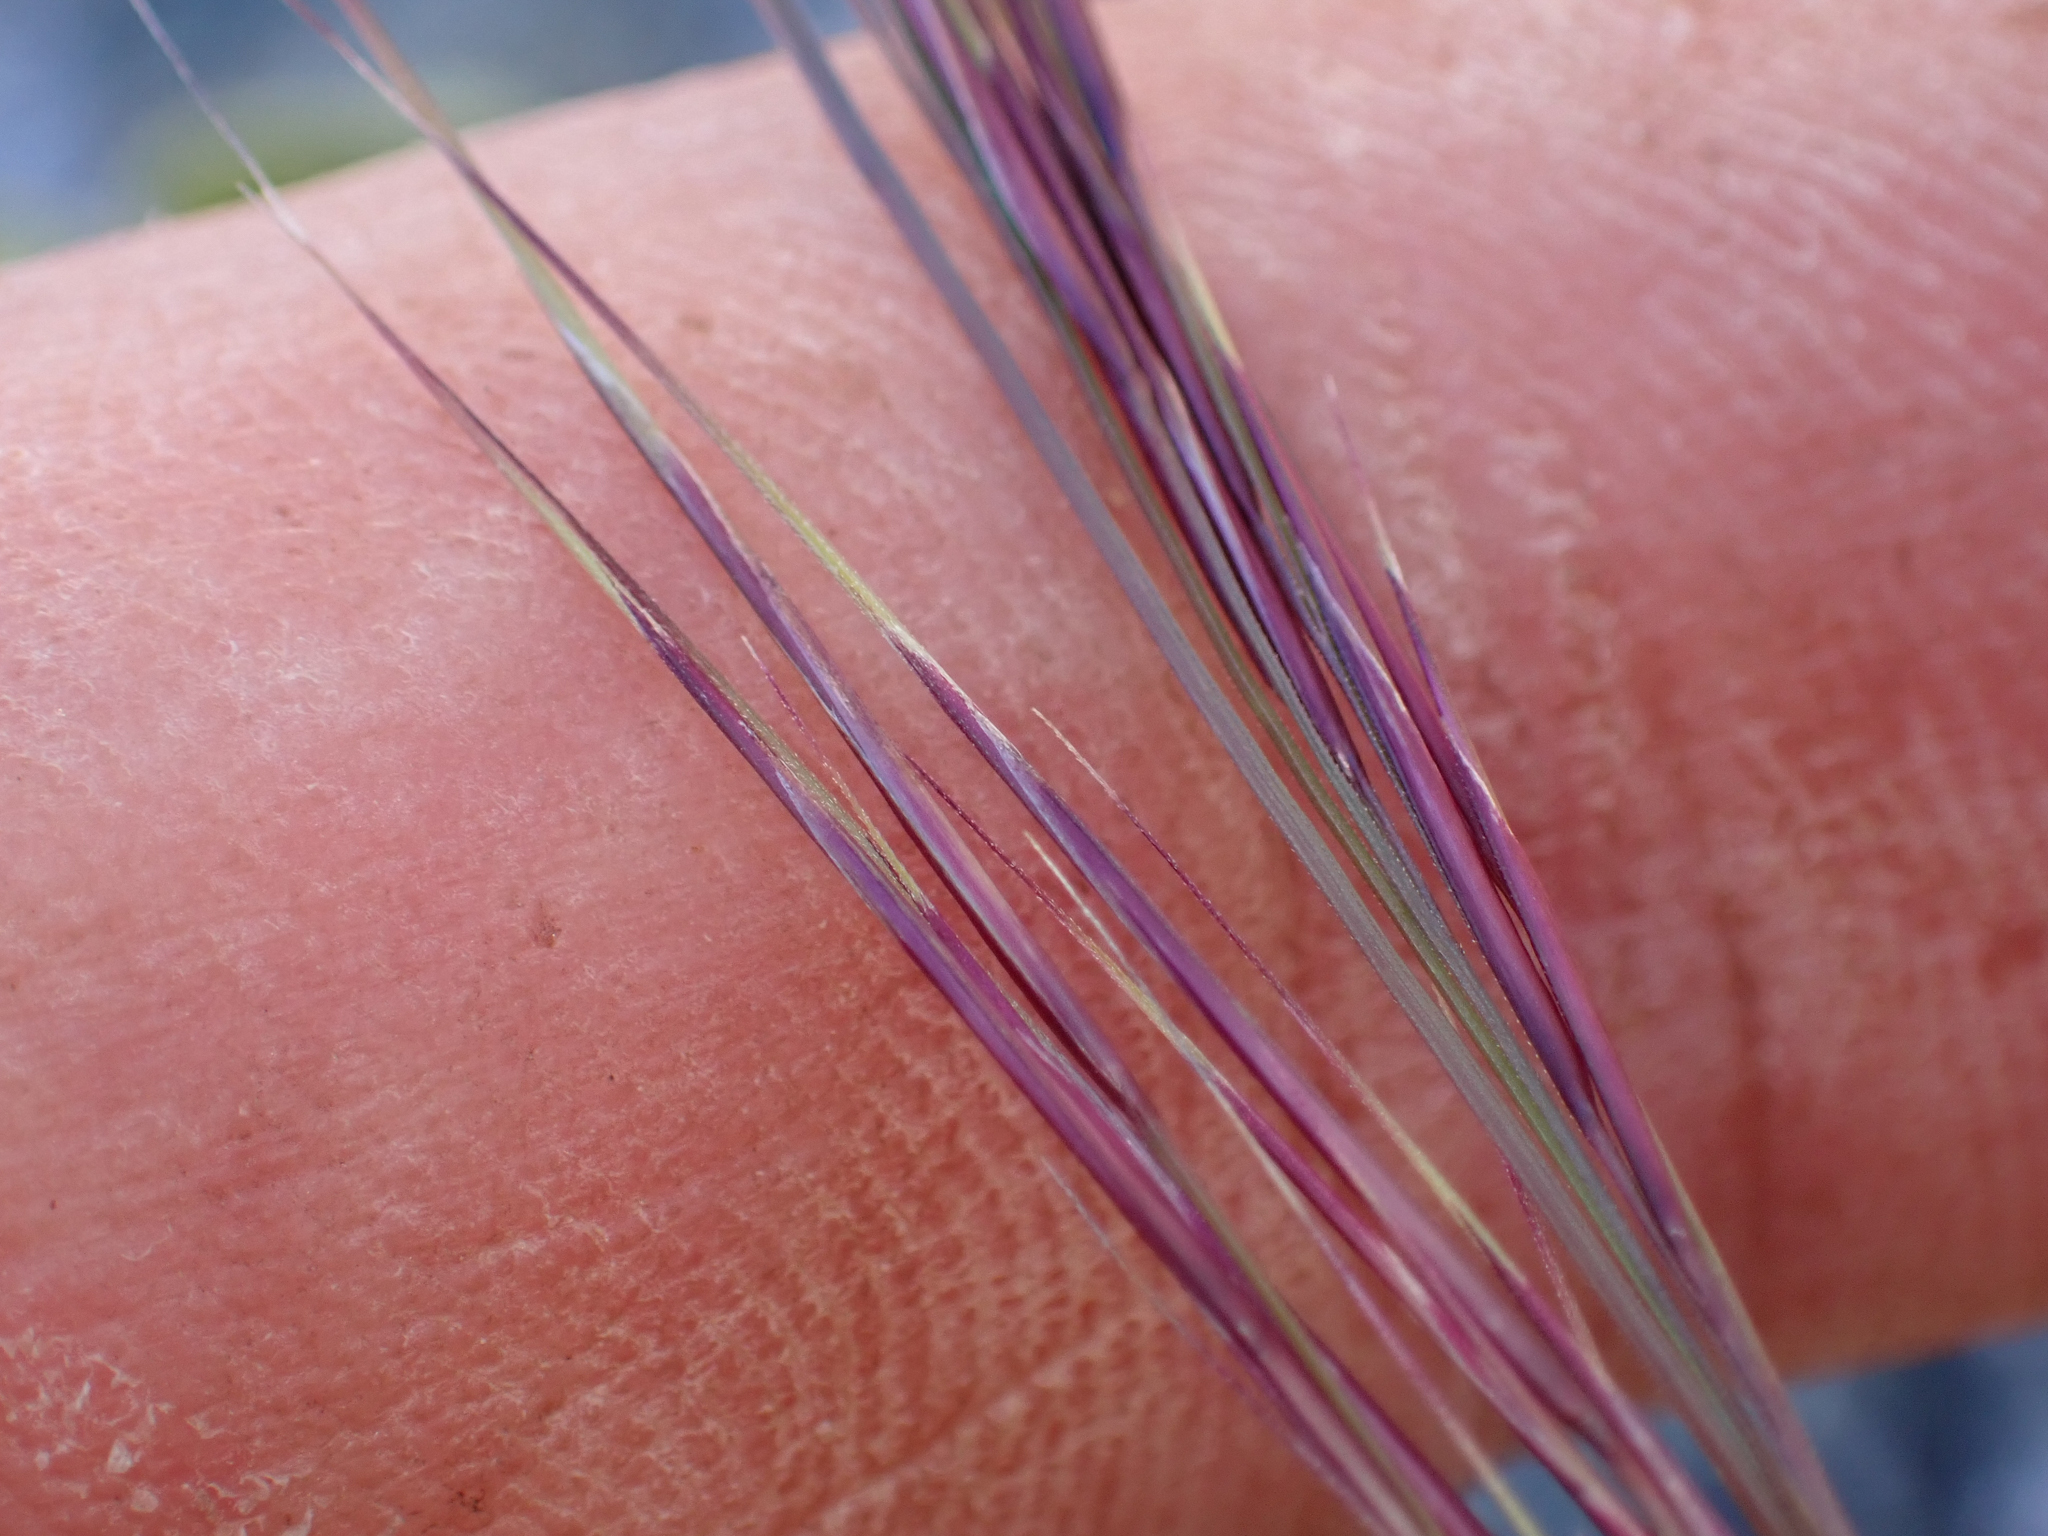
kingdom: Plantae
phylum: Tracheophyta
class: Liliopsida
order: Poales
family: Poaceae
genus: Aristida
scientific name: Aristida adscensionis
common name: Sixweeks threeawn
